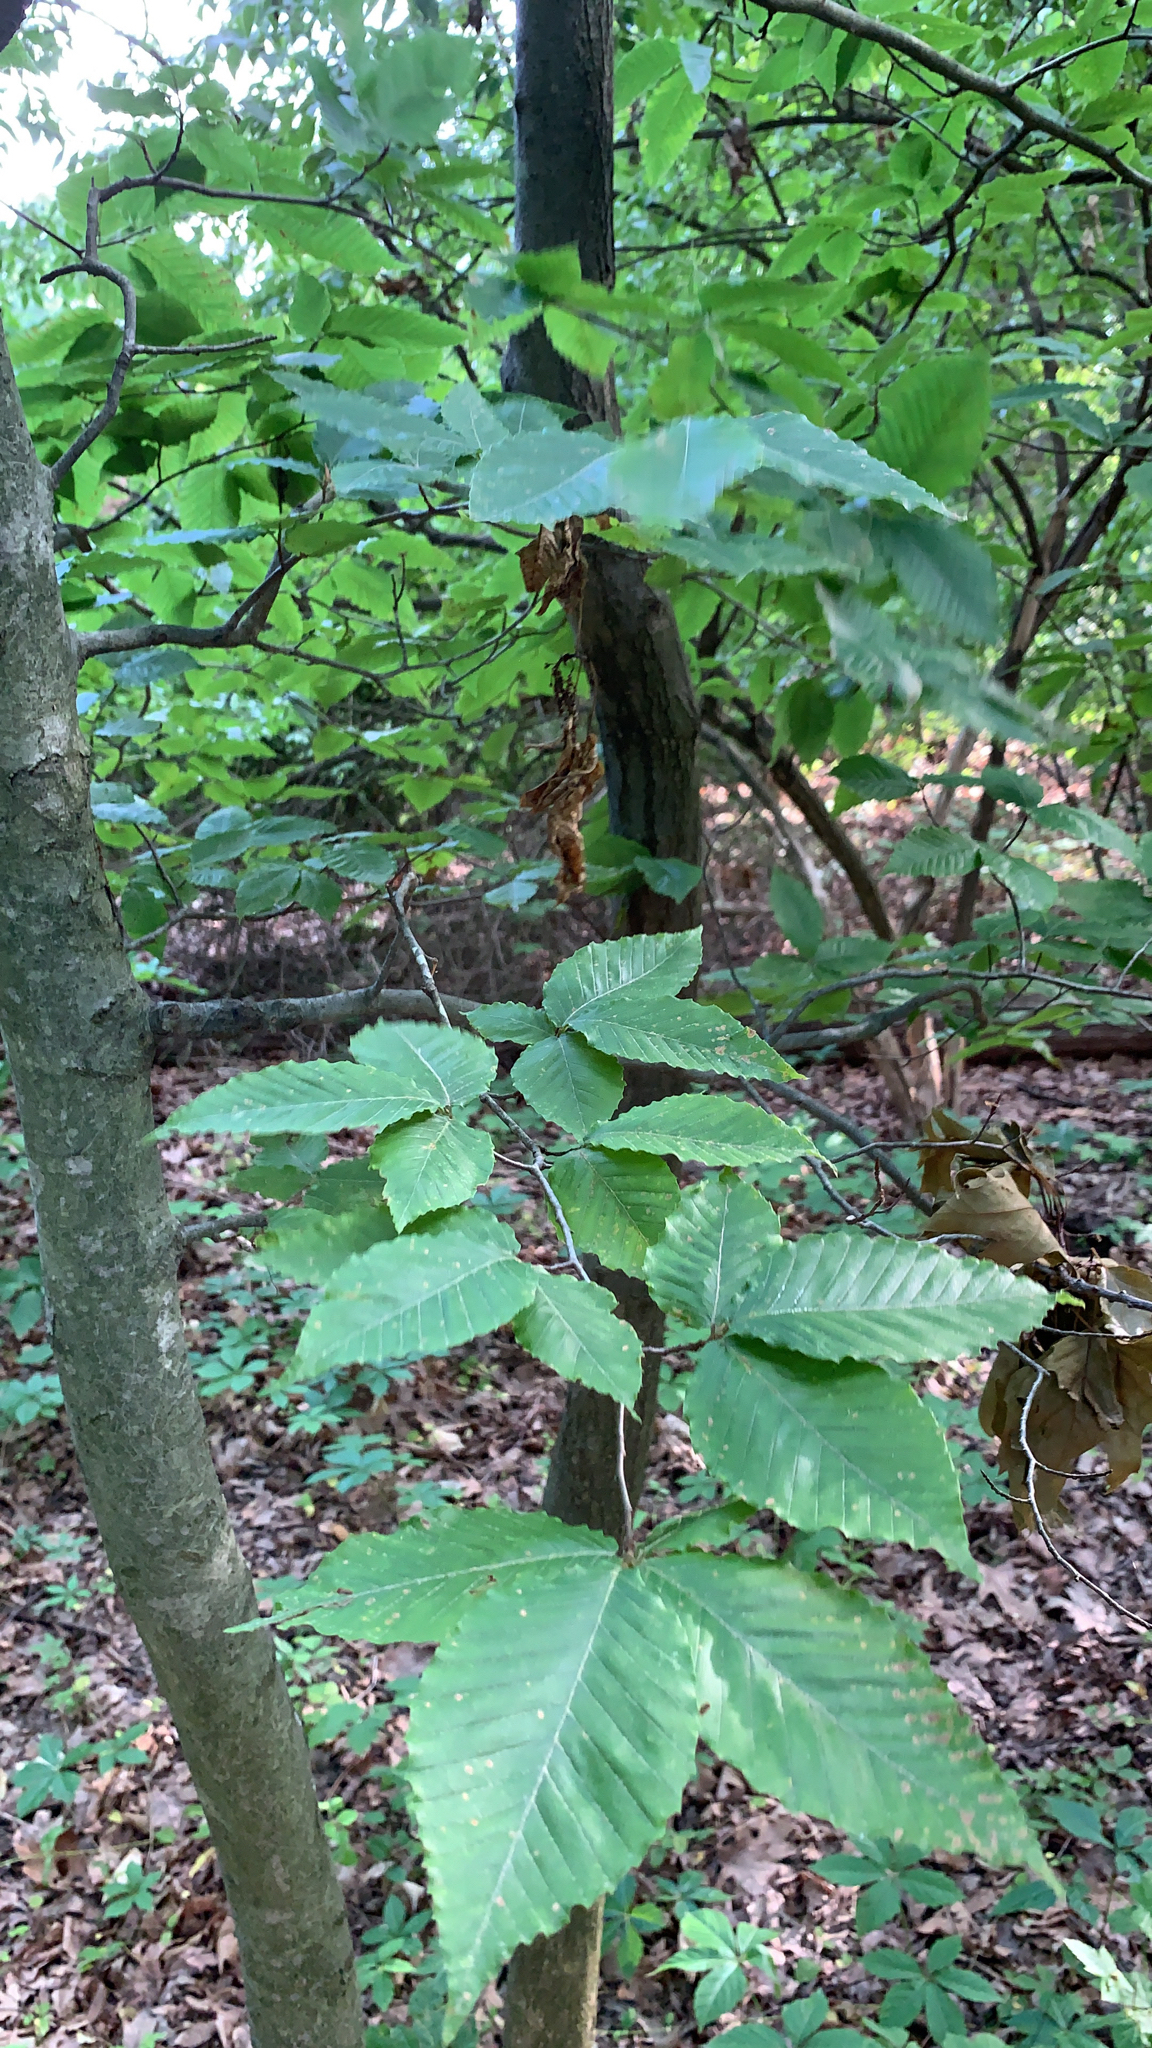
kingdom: Plantae
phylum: Tracheophyta
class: Magnoliopsida
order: Fagales
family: Fagaceae
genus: Fagus
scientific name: Fagus grandifolia
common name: American beech
